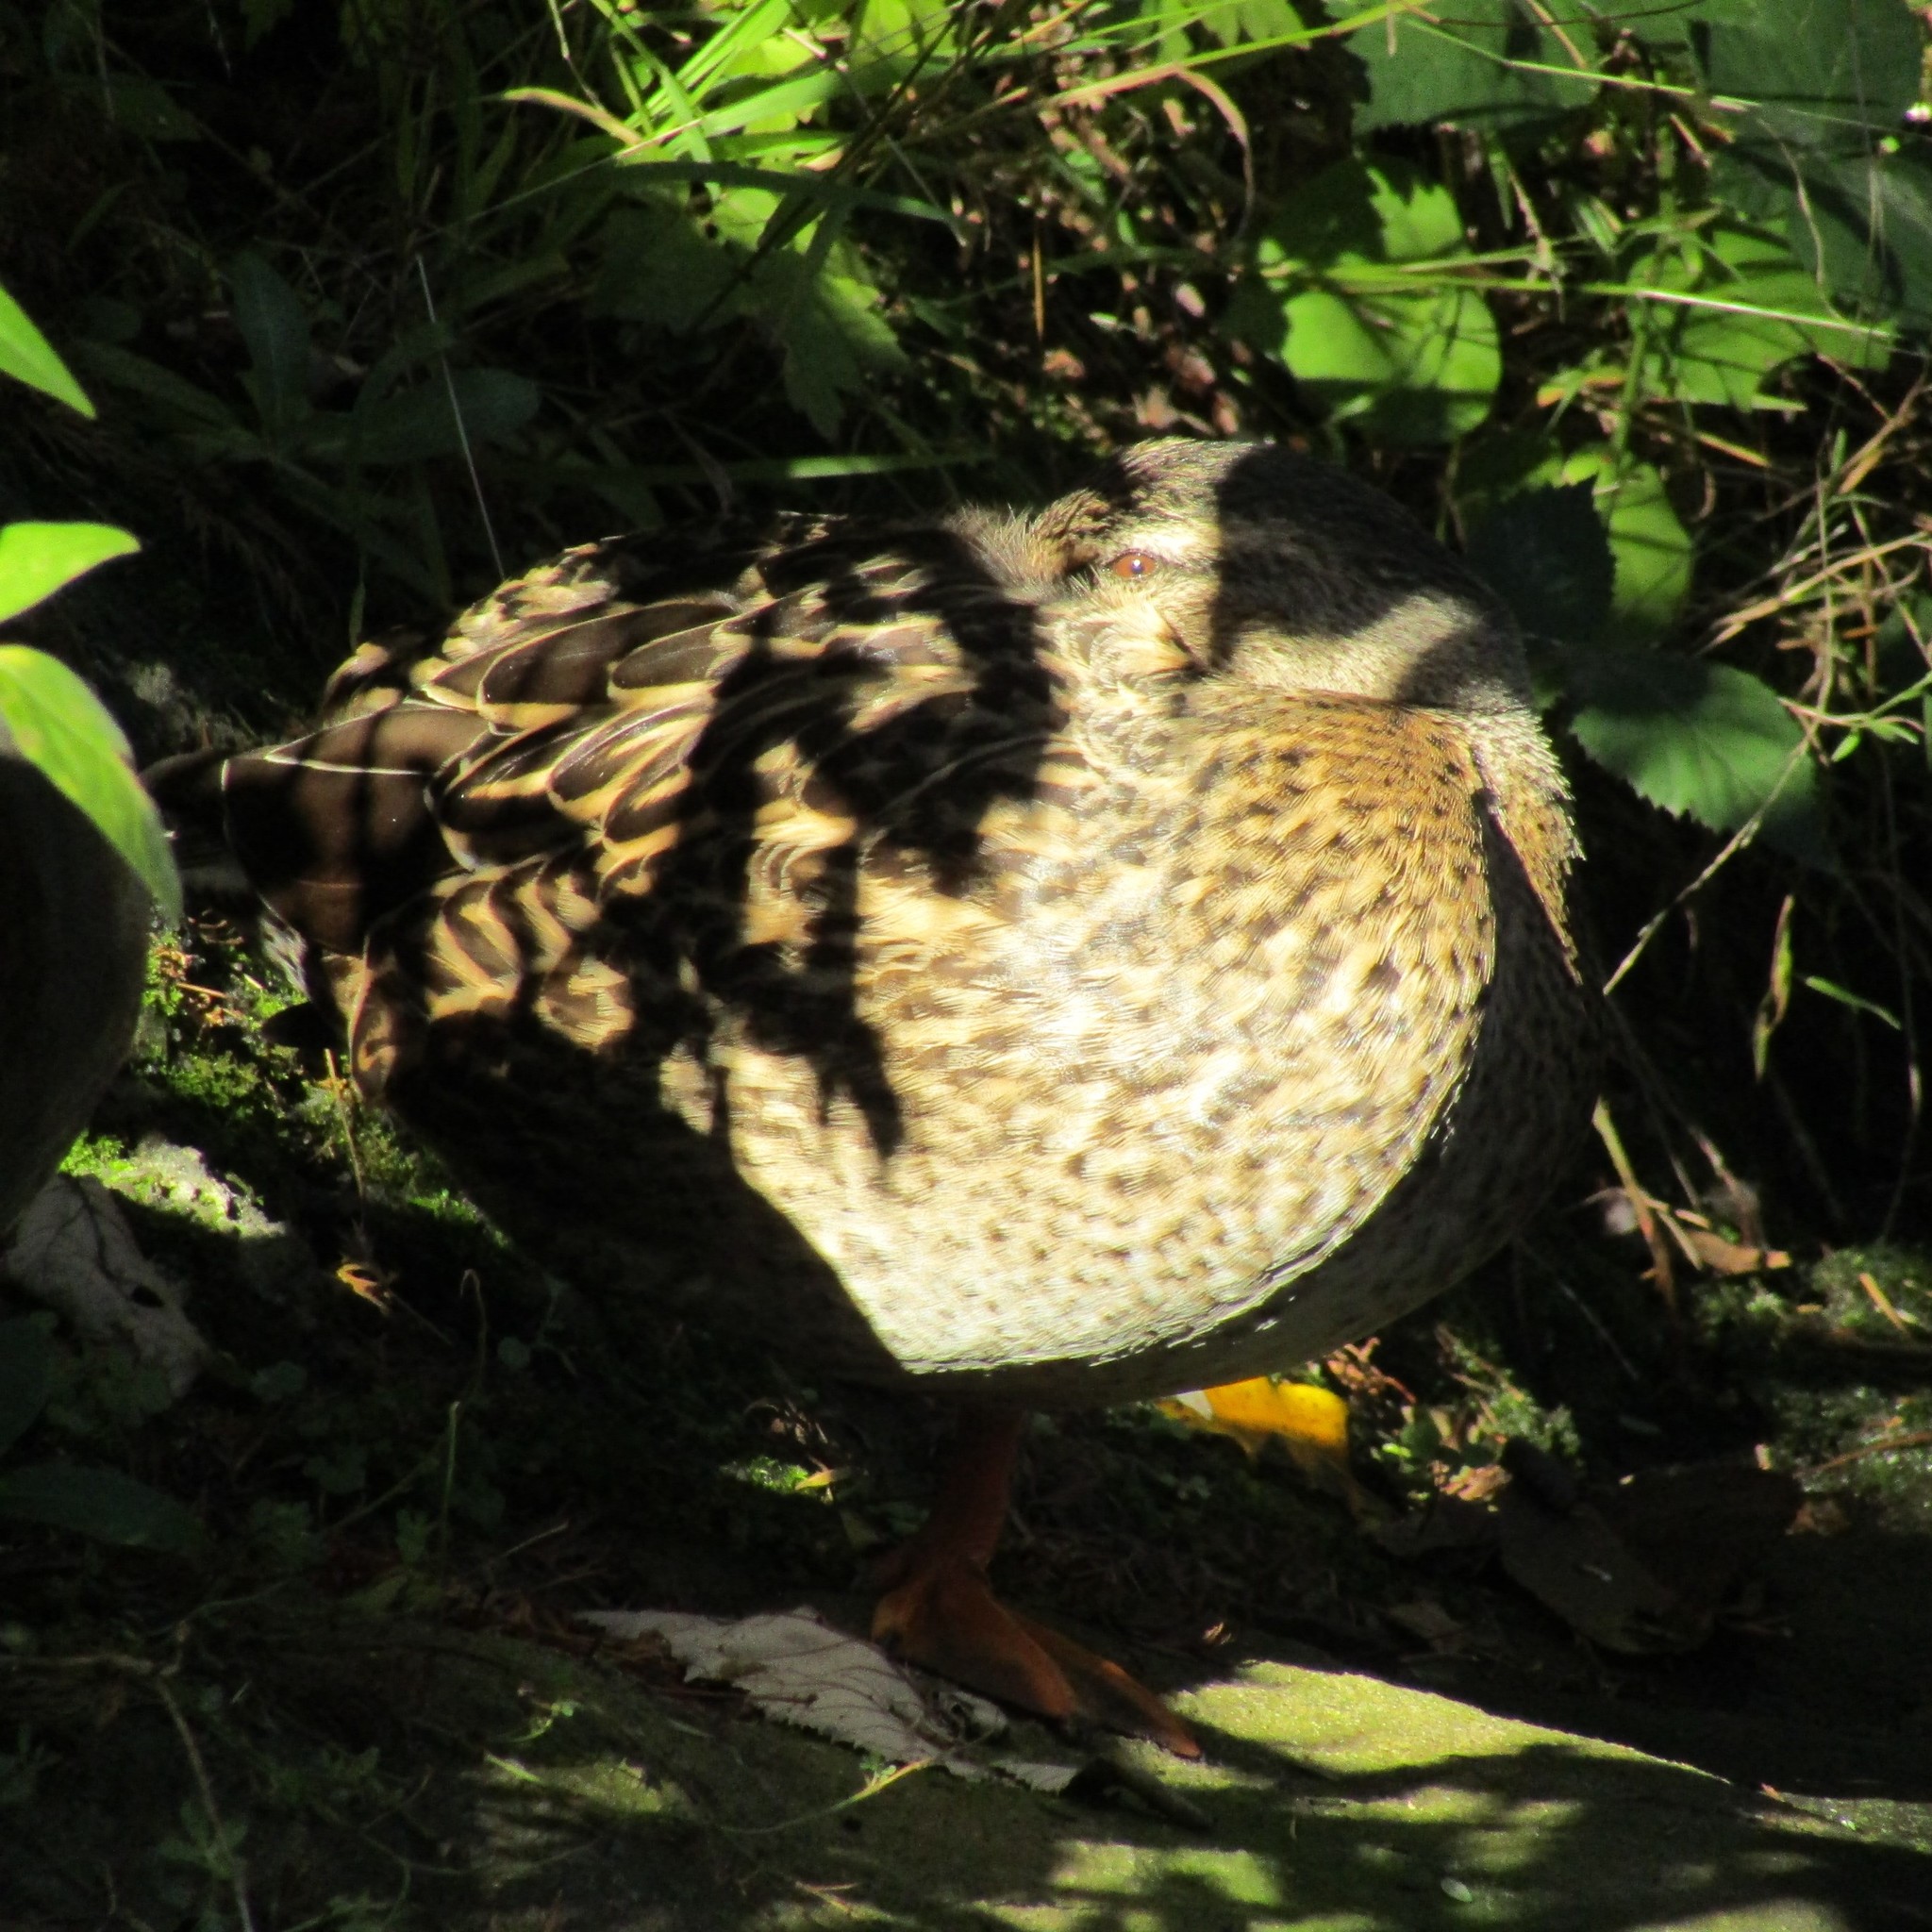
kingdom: Animalia
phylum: Chordata
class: Aves
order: Anseriformes
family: Anatidae
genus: Anas
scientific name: Anas
